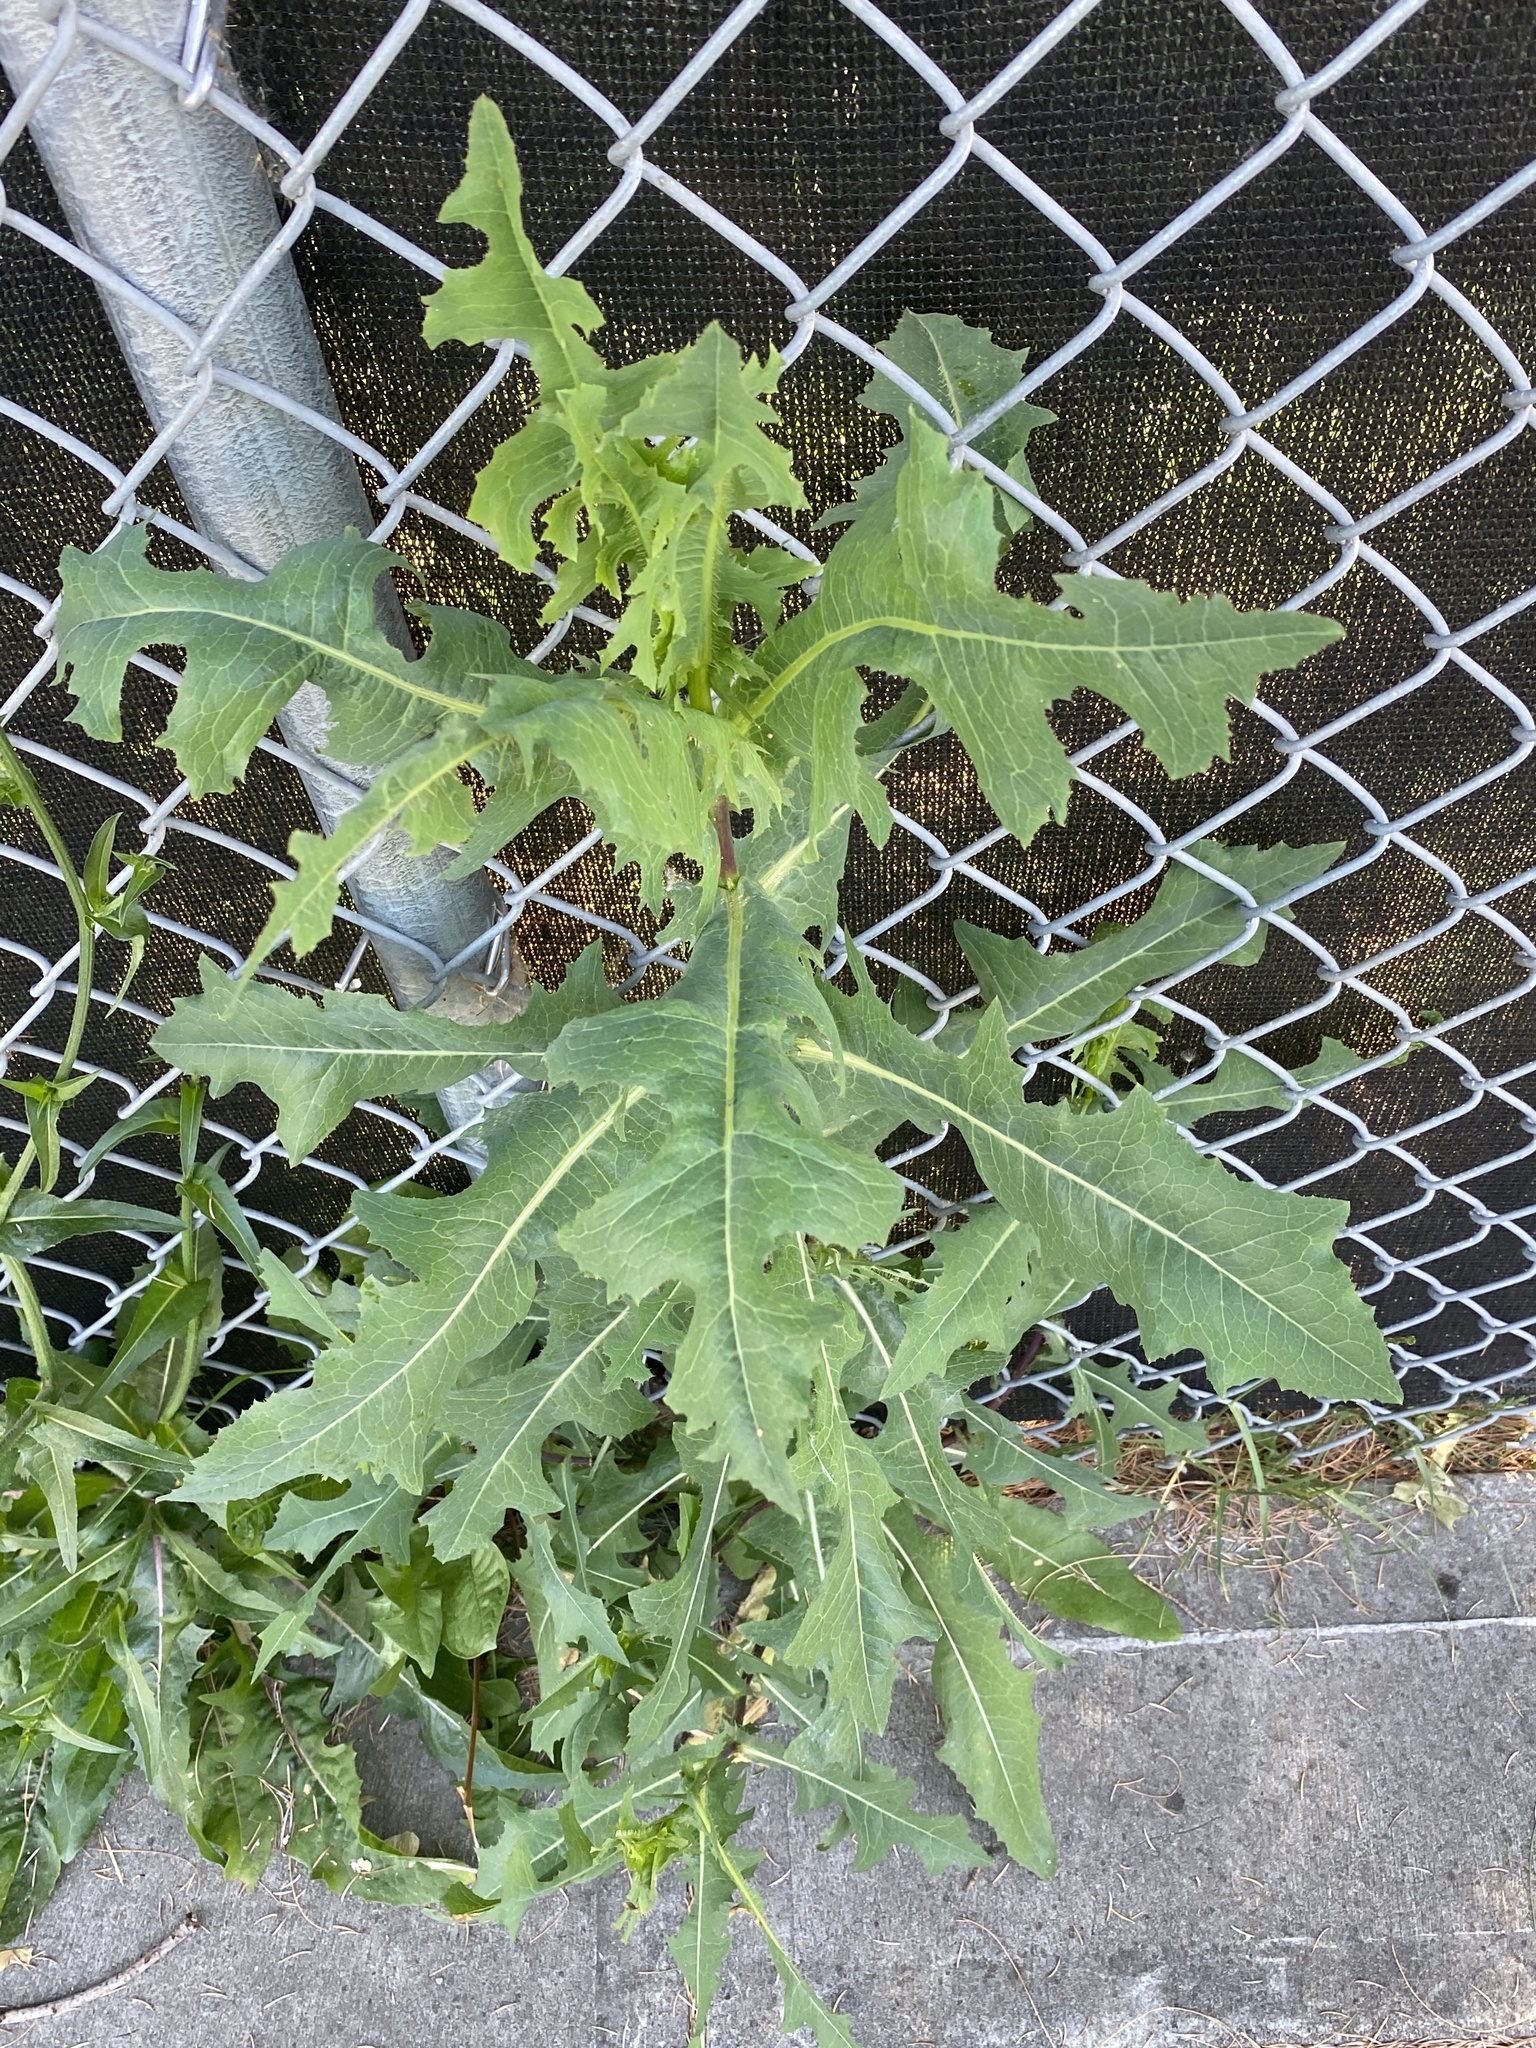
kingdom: Plantae
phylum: Tracheophyta
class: Magnoliopsida
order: Asterales
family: Asteraceae
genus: Lactuca
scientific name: Lactuca serriola
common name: Prickly lettuce
